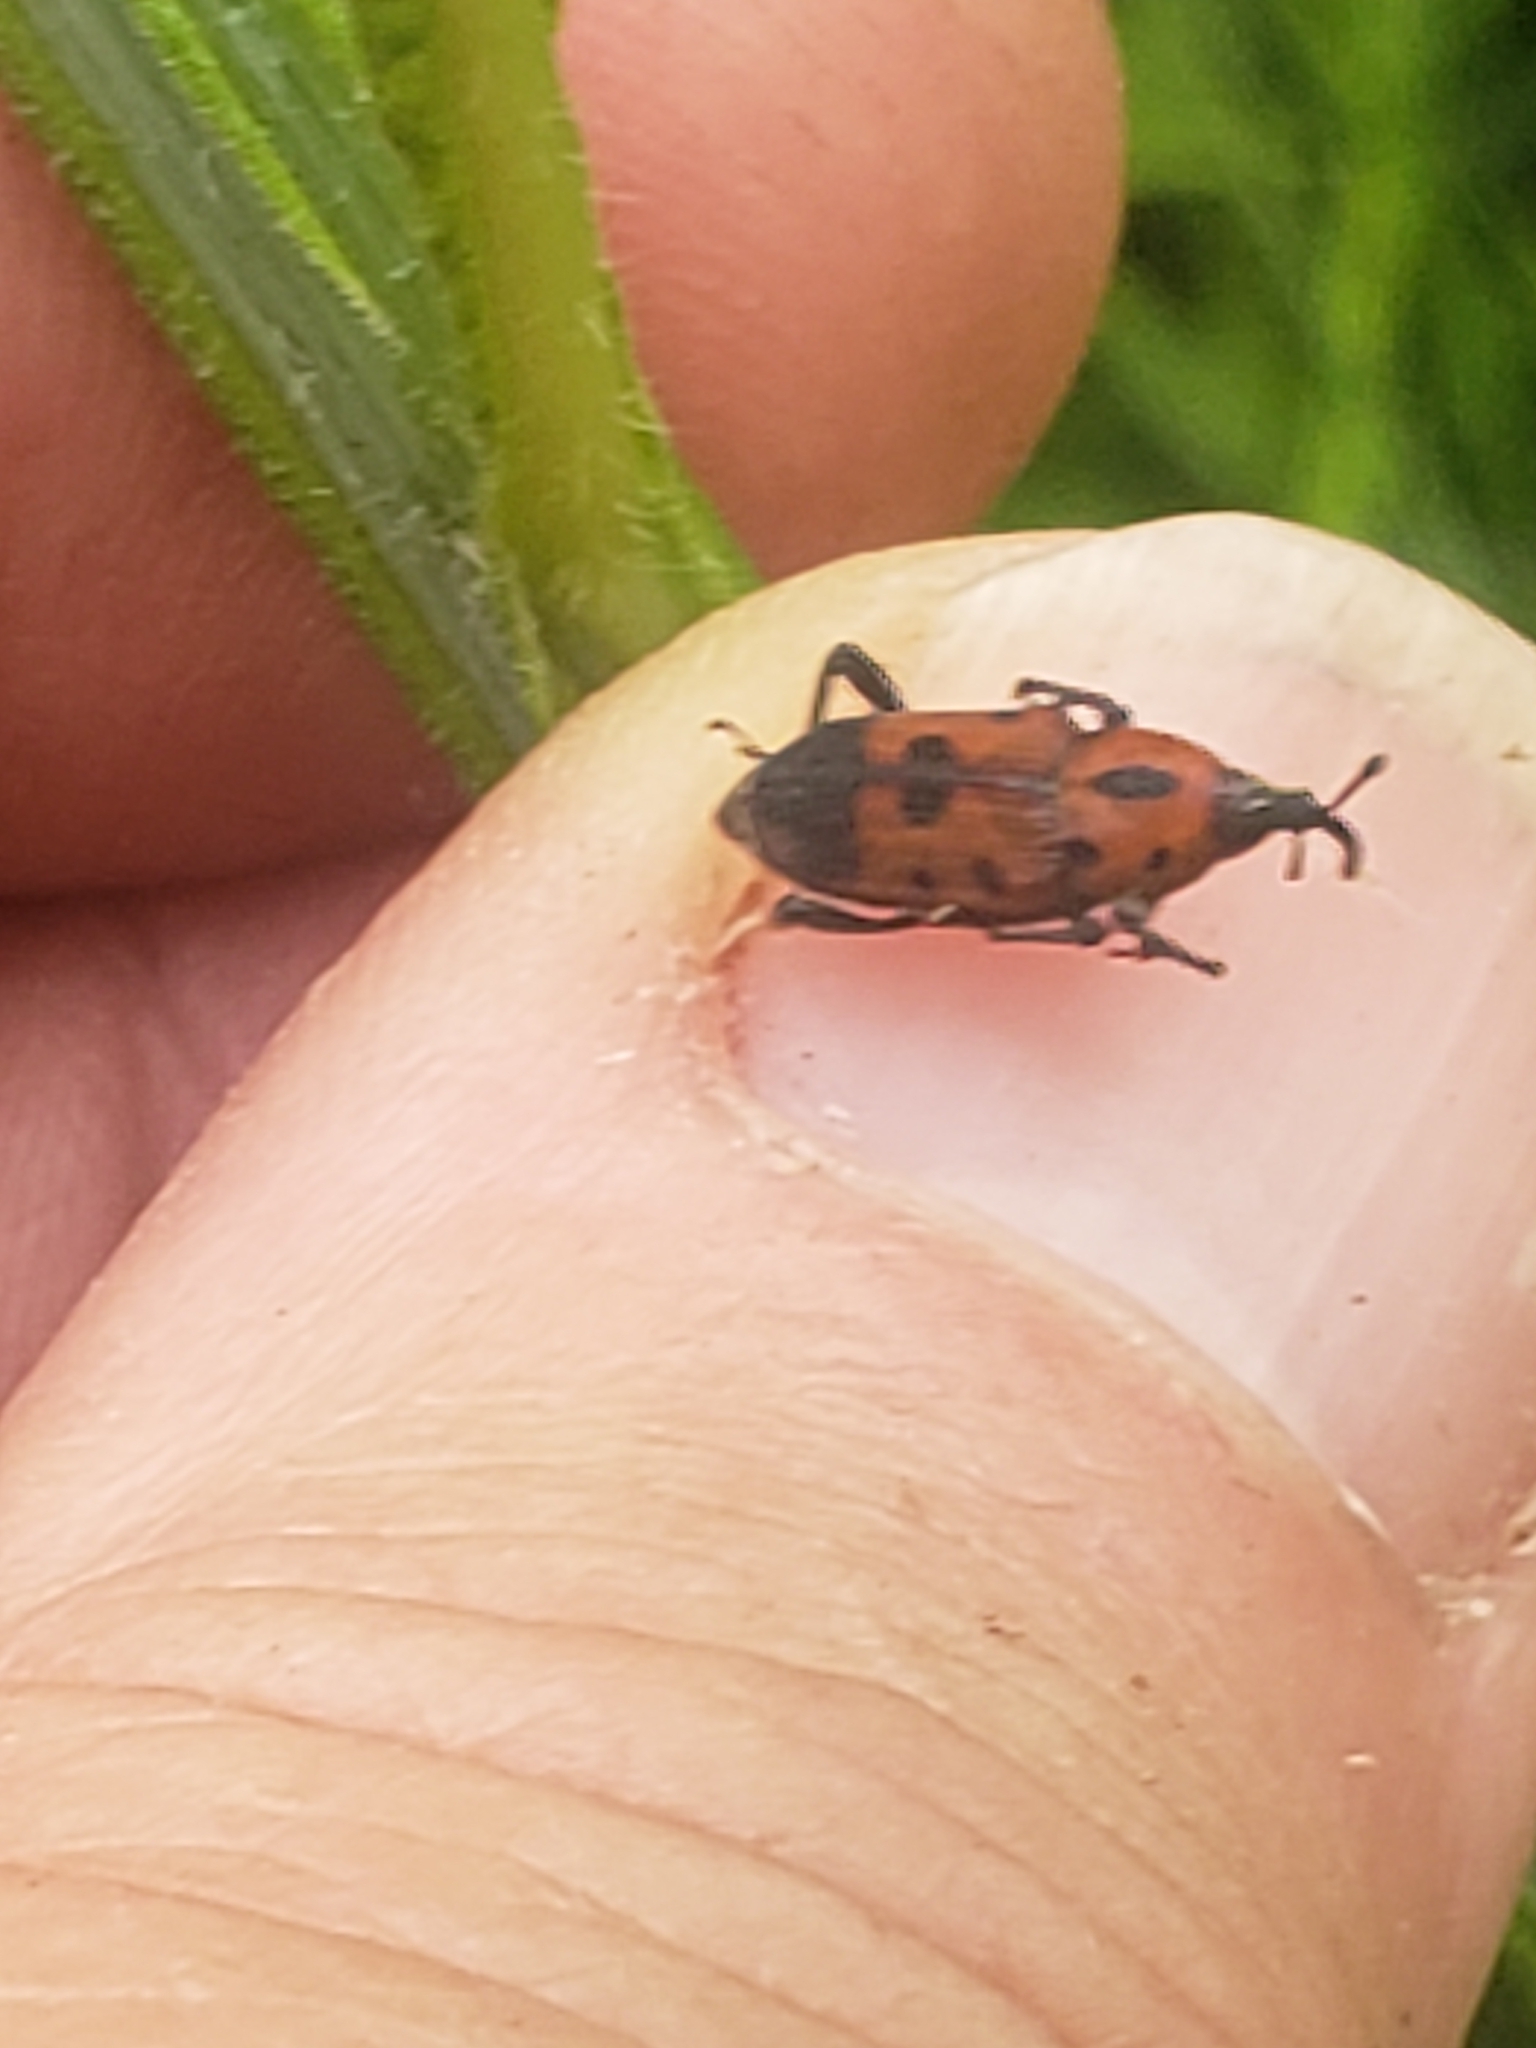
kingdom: Animalia
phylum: Arthropoda
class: Insecta
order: Coleoptera
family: Dryophthoridae
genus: Rhodobaenus
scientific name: Rhodobaenus quinquepunctatus
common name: Cocklebur weevil
